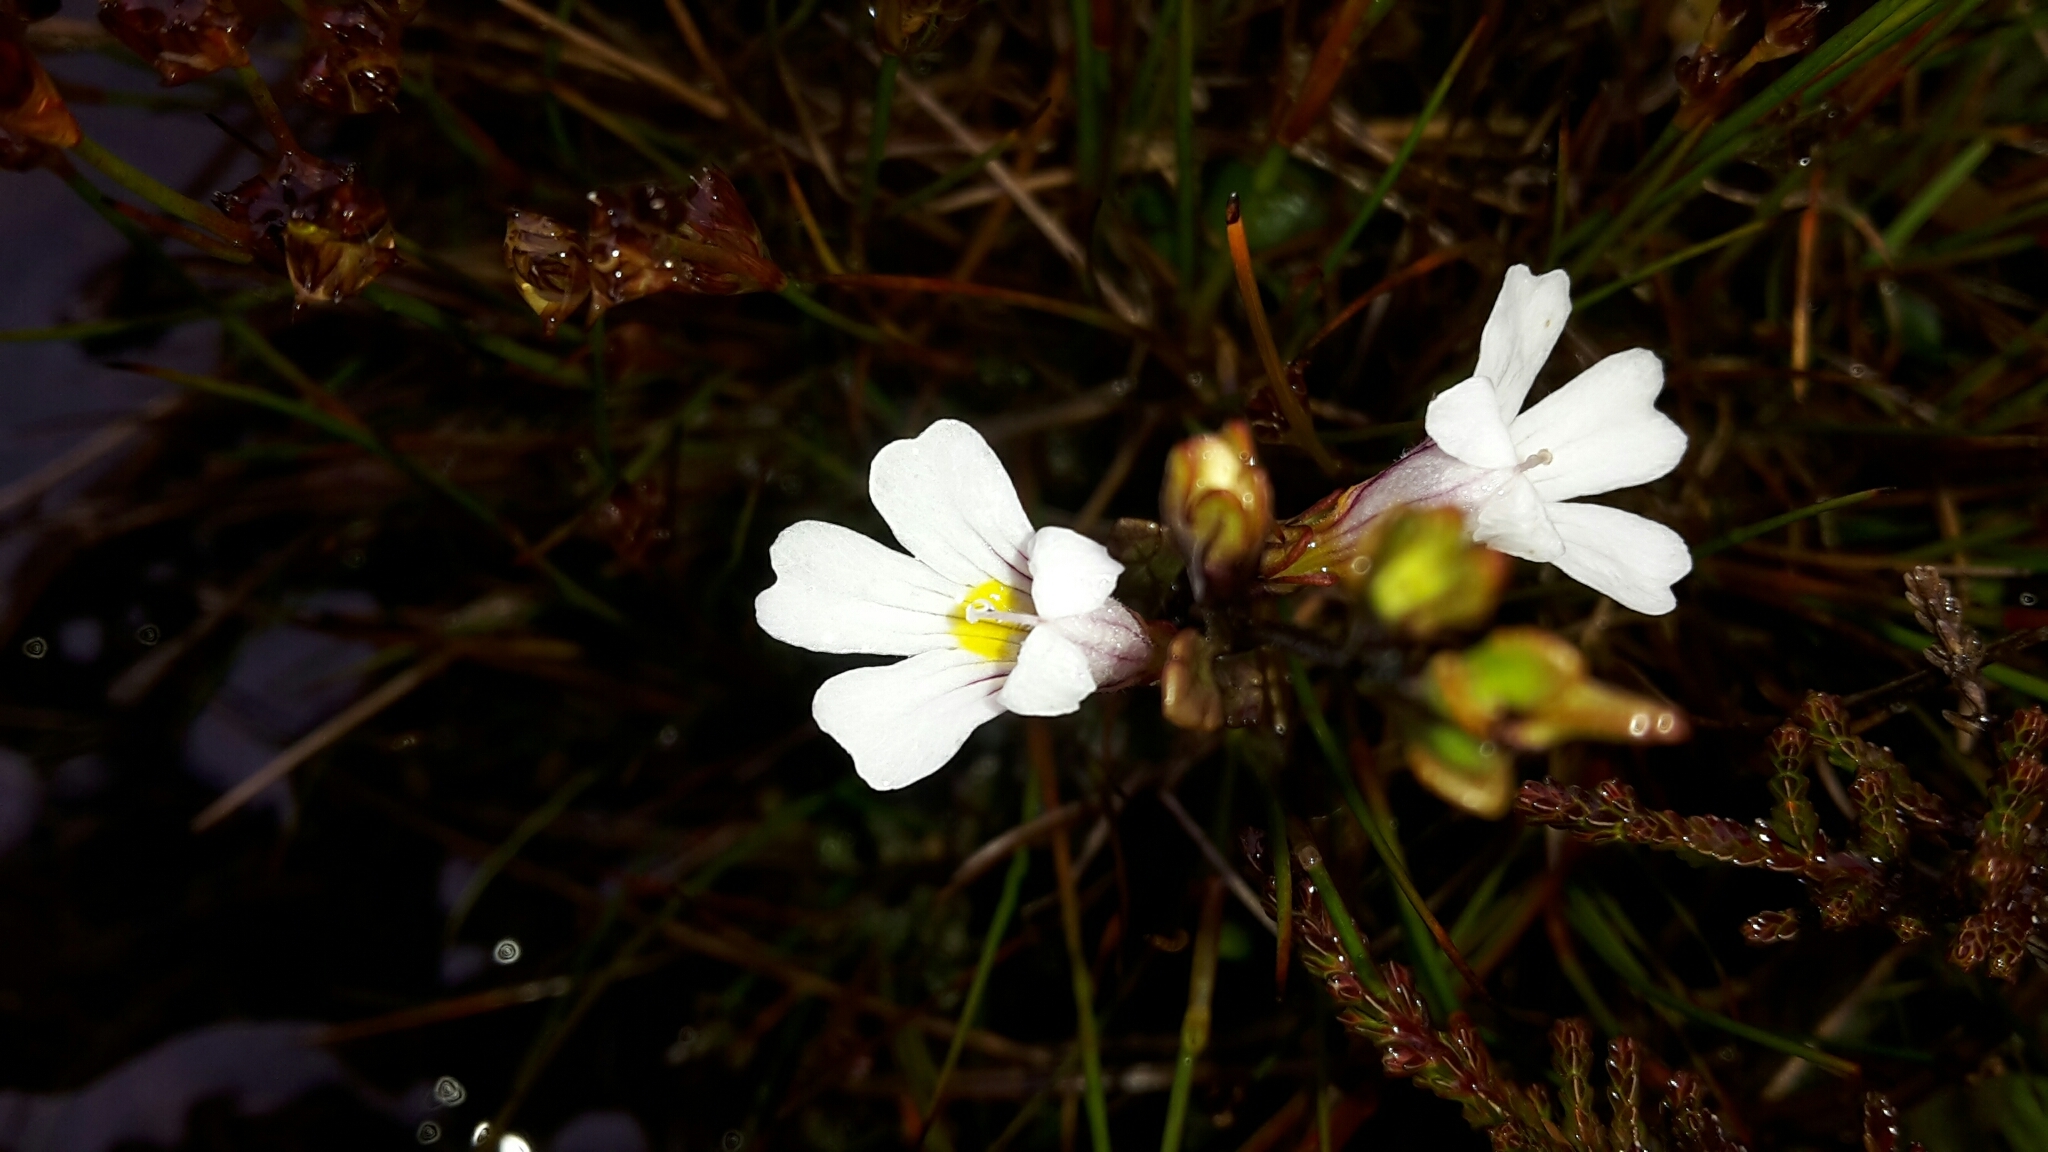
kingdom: Plantae
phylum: Tracheophyta
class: Magnoliopsida
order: Lamiales
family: Orobanchaceae
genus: Euphrasia
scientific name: Euphrasia cuneata
